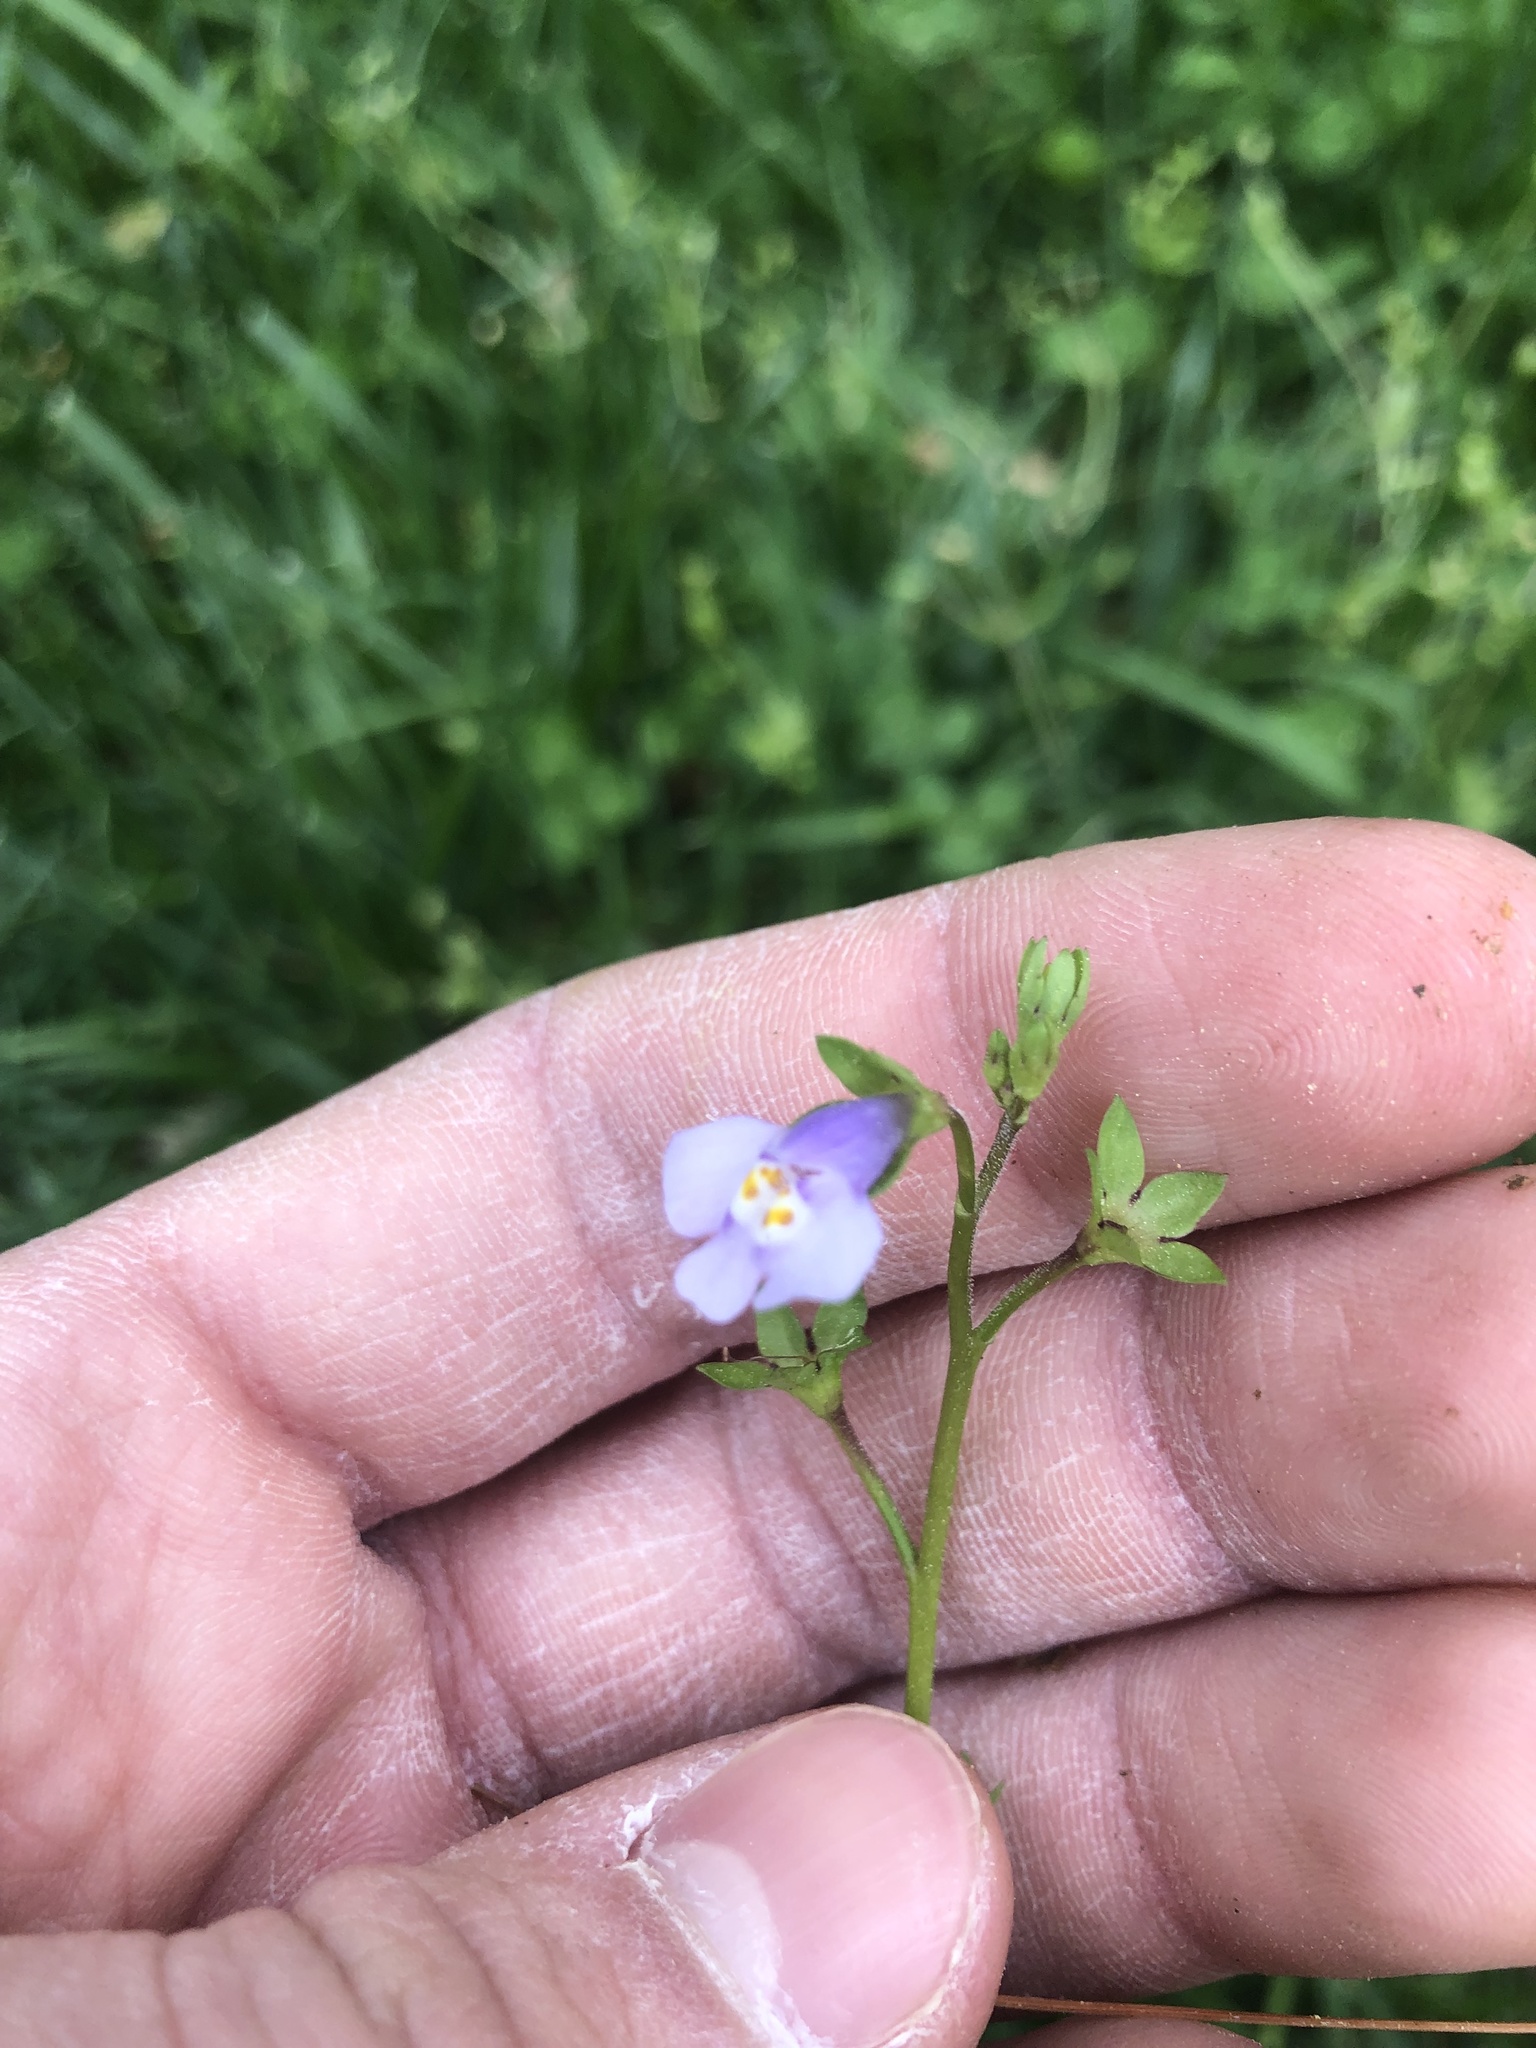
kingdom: Plantae
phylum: Tracheophyta
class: Magnoliopsida
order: Lamiales
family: Mazaceae
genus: Mazus
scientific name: Mazus pumilus
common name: Japanese mazus
